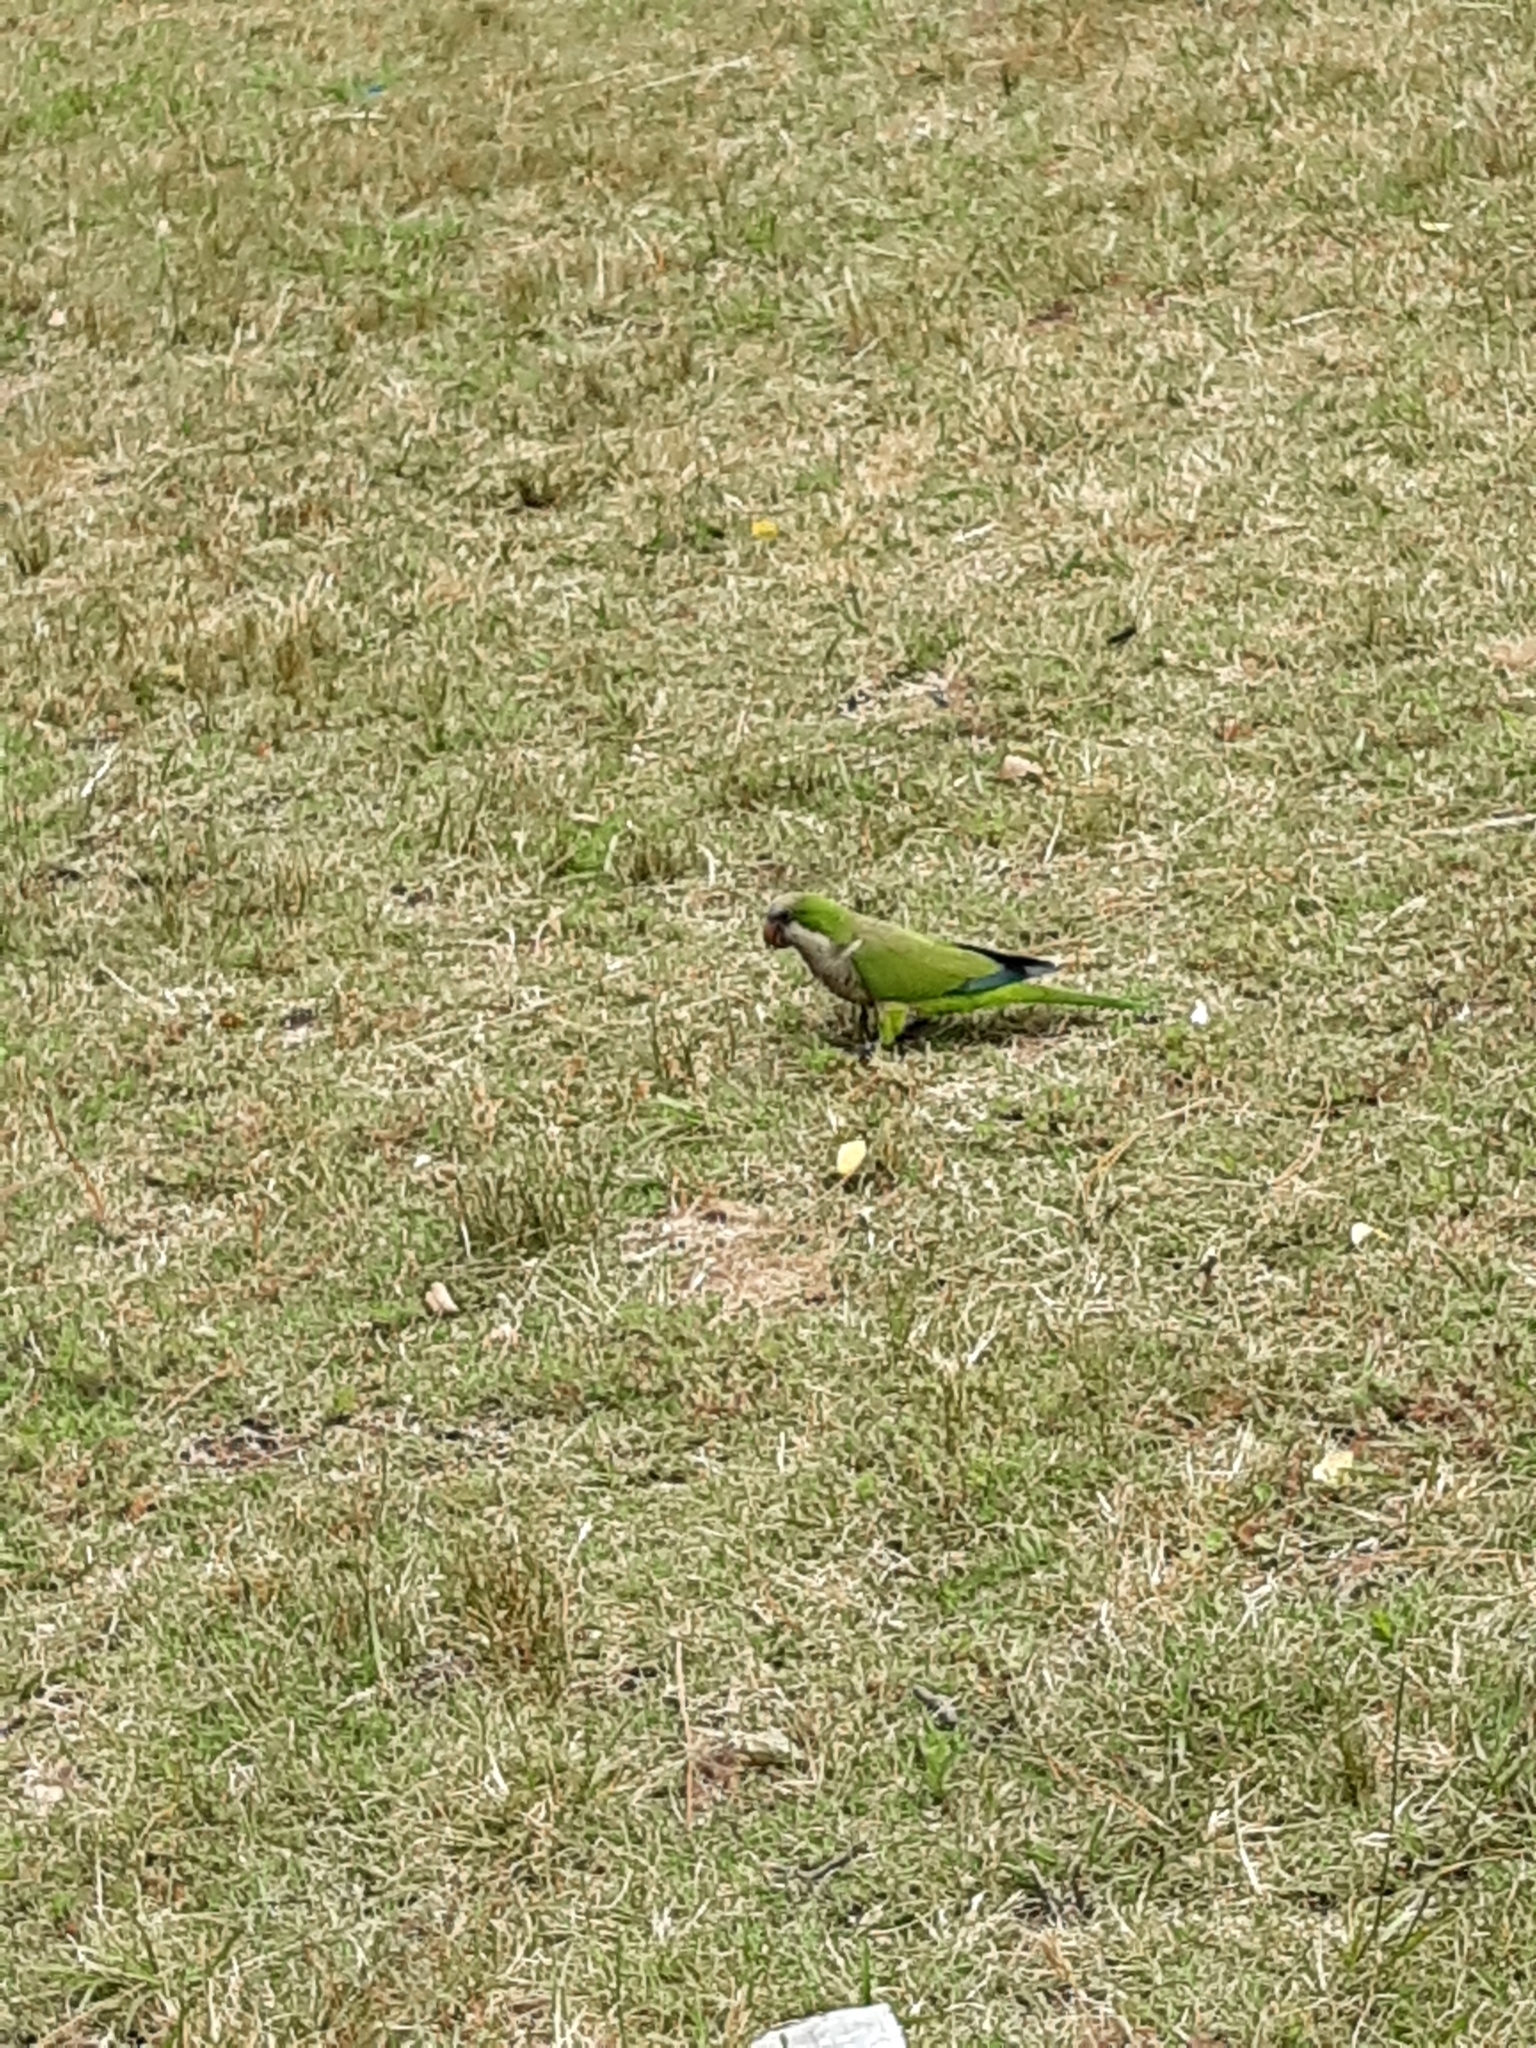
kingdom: Animalia
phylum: Chordata
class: Aves
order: Psittaciformes
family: Psittacidae
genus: Myiopsitta
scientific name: Myiopsitta monachus
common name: Monk parakeet
